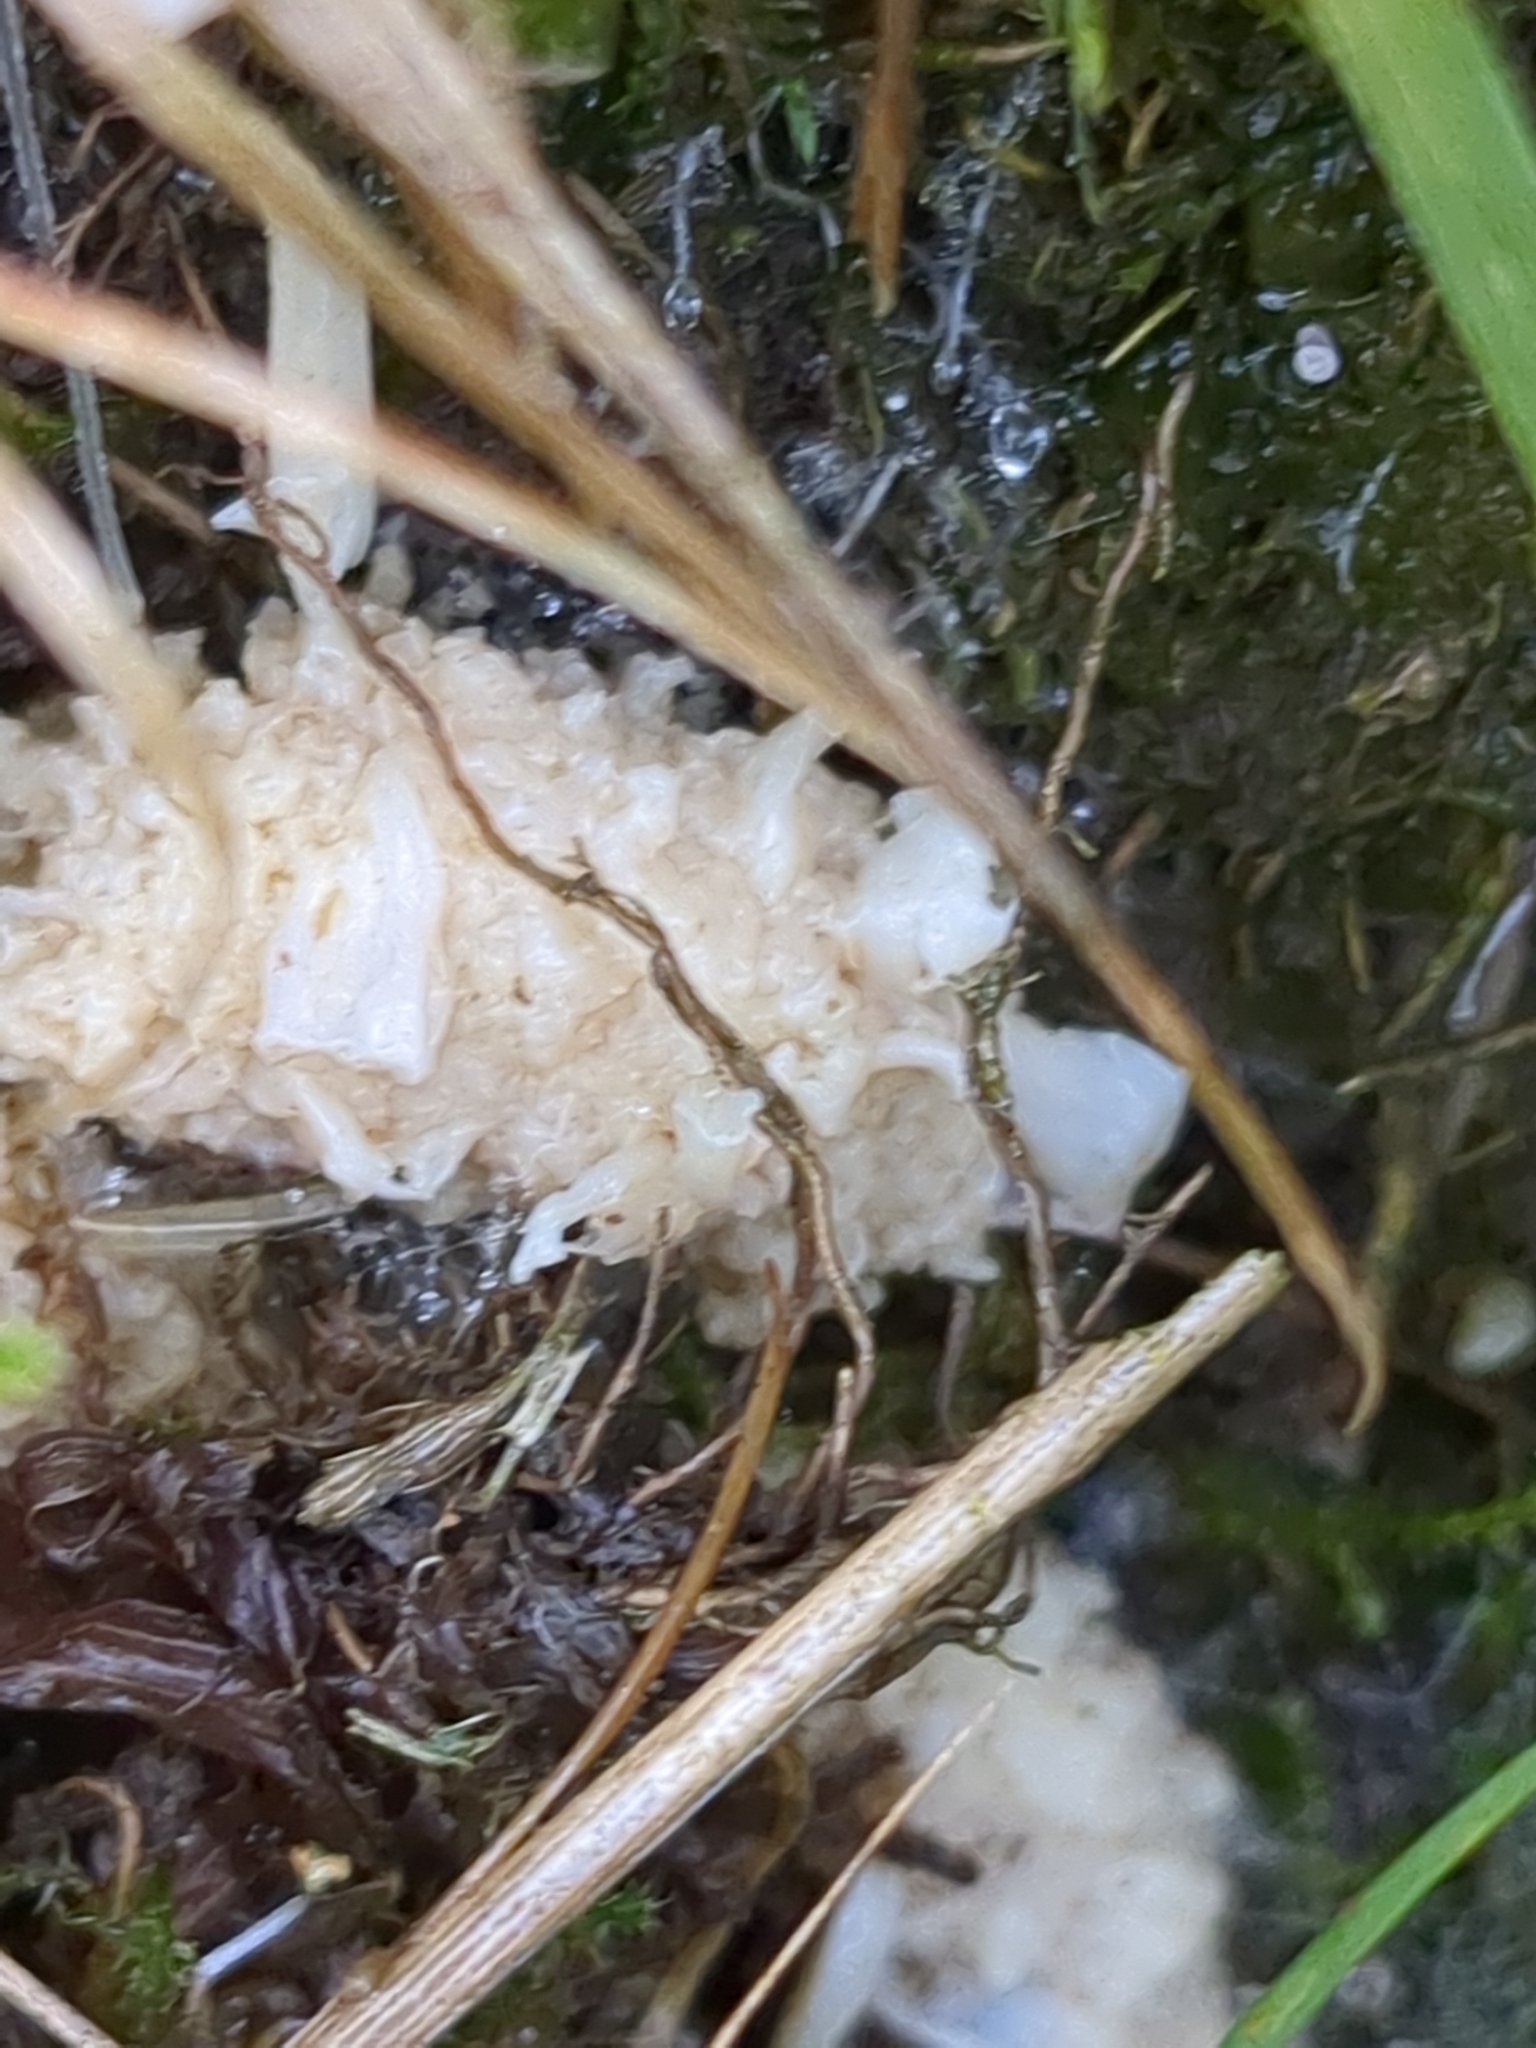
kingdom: Fungi
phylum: Basidiomycota
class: Agaricomycetes
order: Agaricales
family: Clavariaceae
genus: Clavaria
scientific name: Clavaria fragilis
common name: White spindles
